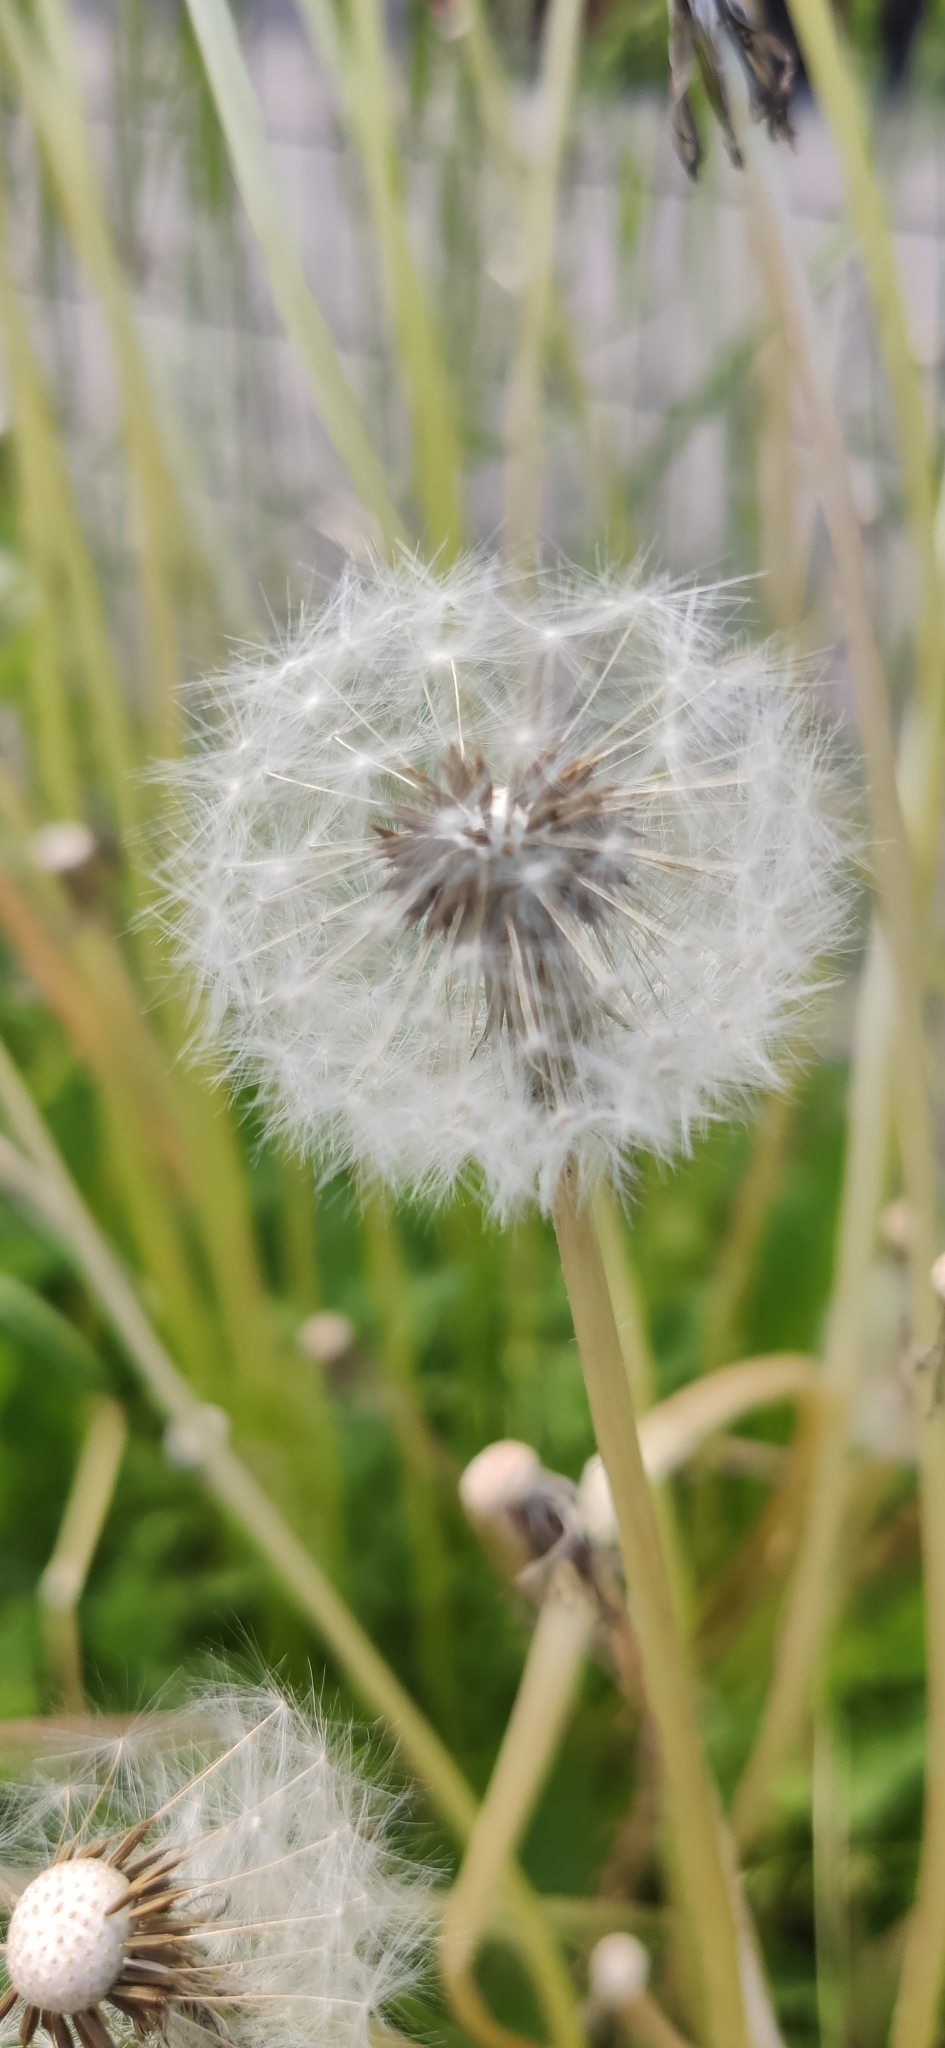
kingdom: Plantae
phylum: Tracheophyta
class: Magnoliopsida
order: Asterales
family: Asteraceae
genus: Taraxacum
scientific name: Taraxacum officinale
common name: Common dandelion
